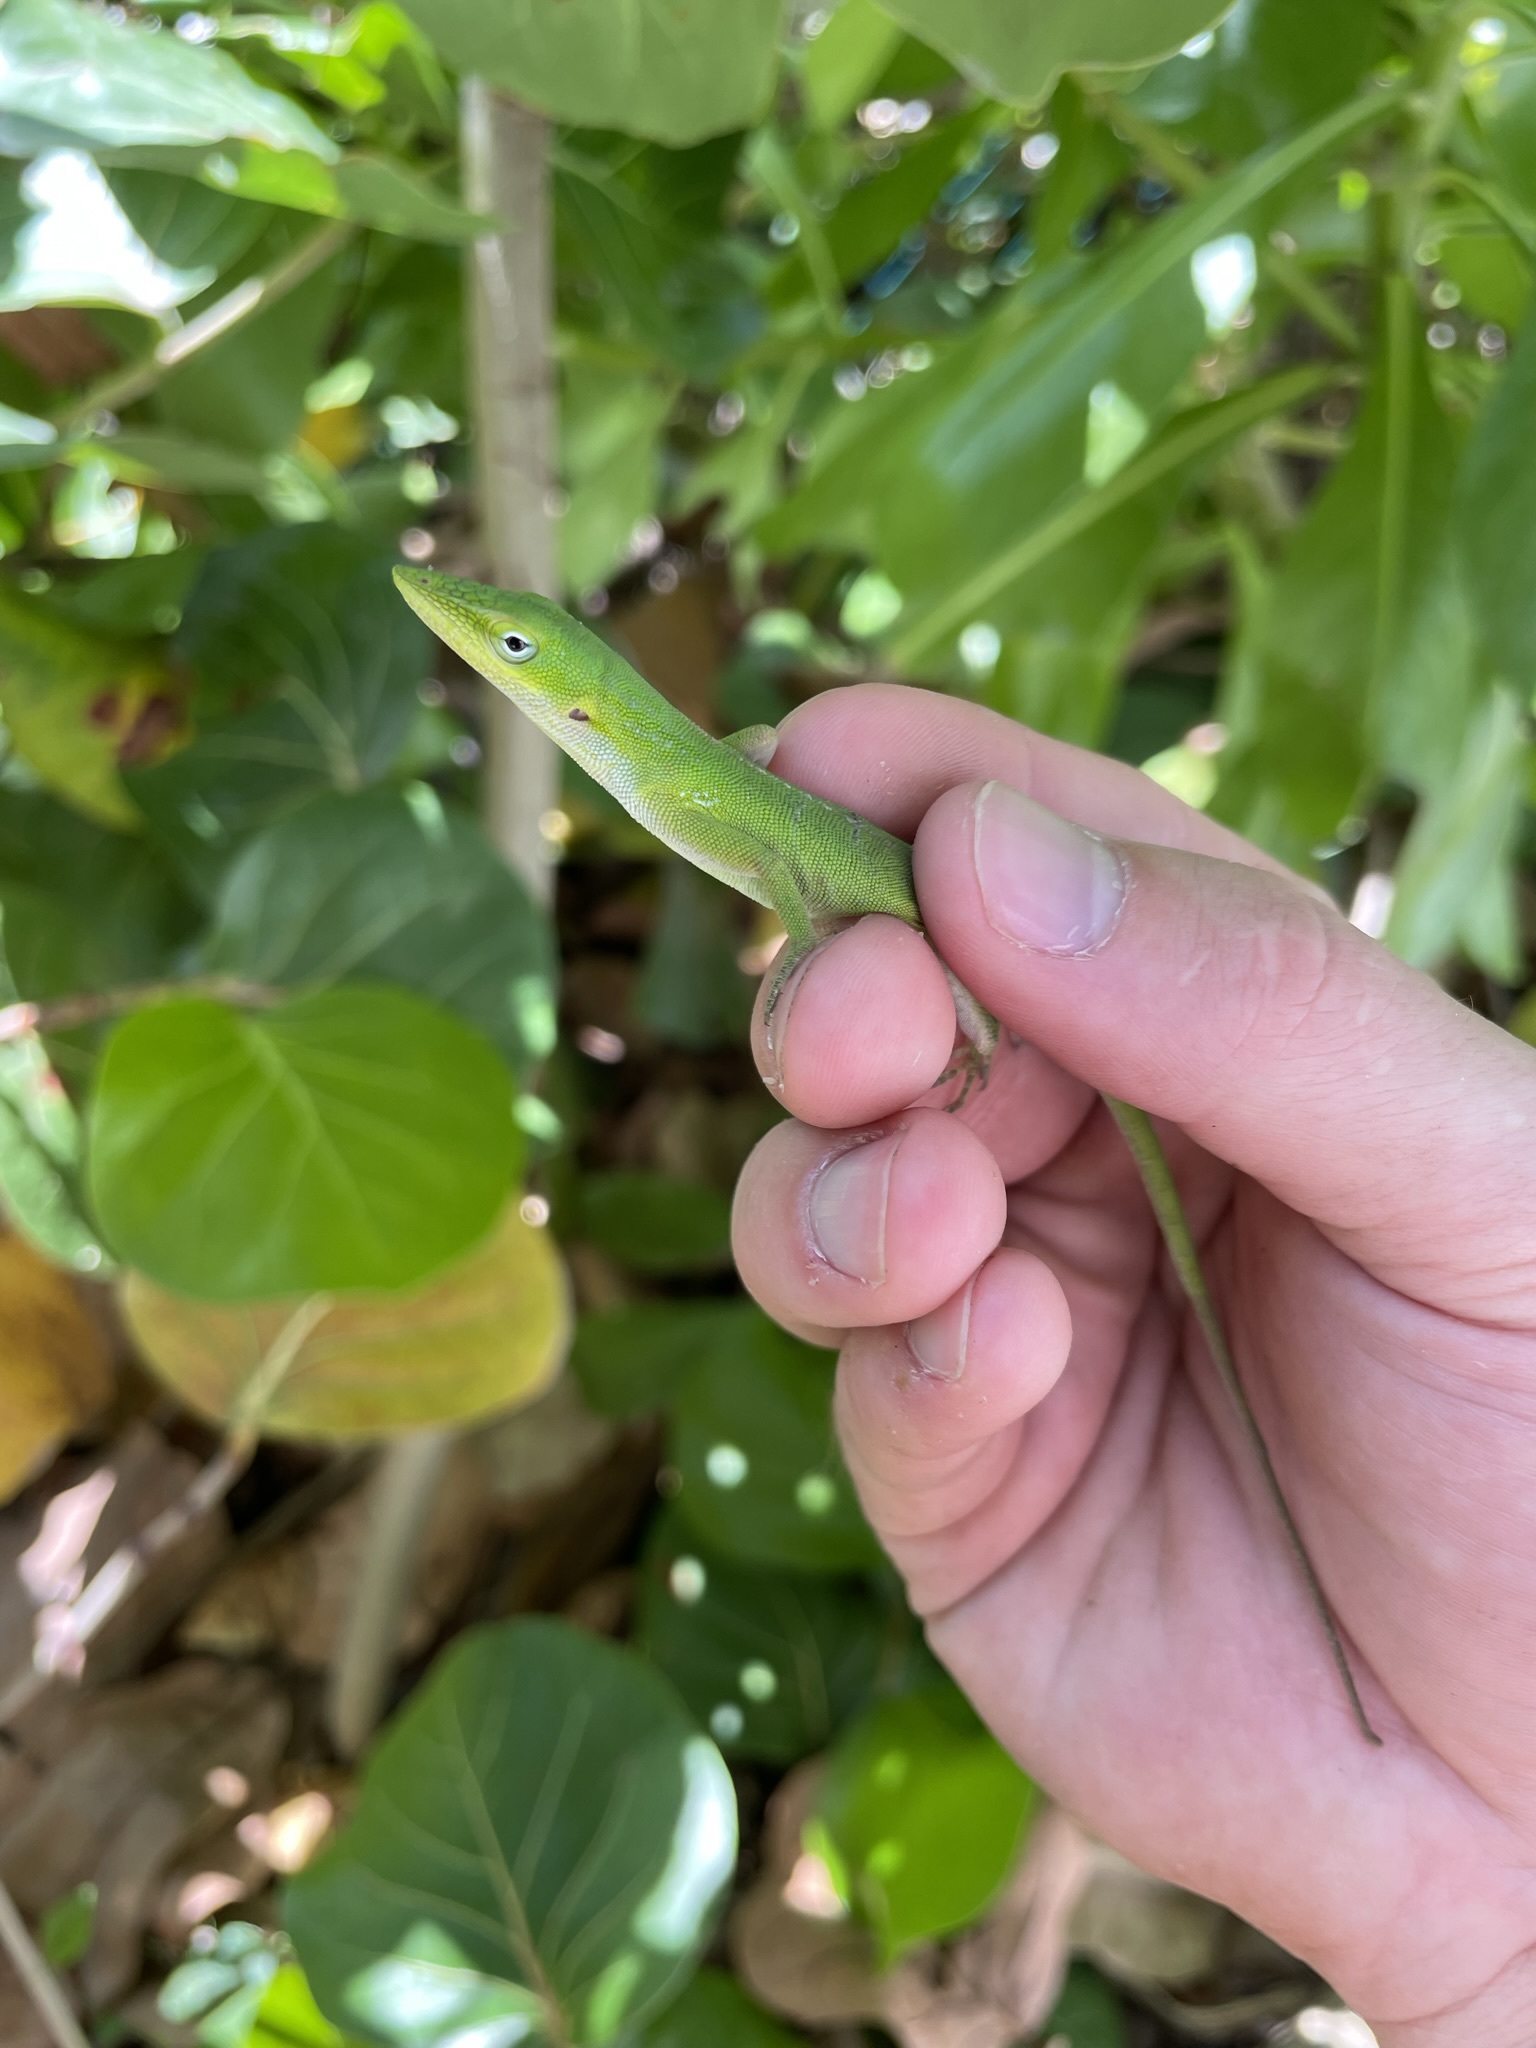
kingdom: Animalia
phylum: Chordata
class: Squamata
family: Dactyloidae
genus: Anolis
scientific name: Anolis carolinensis
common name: Green anole
